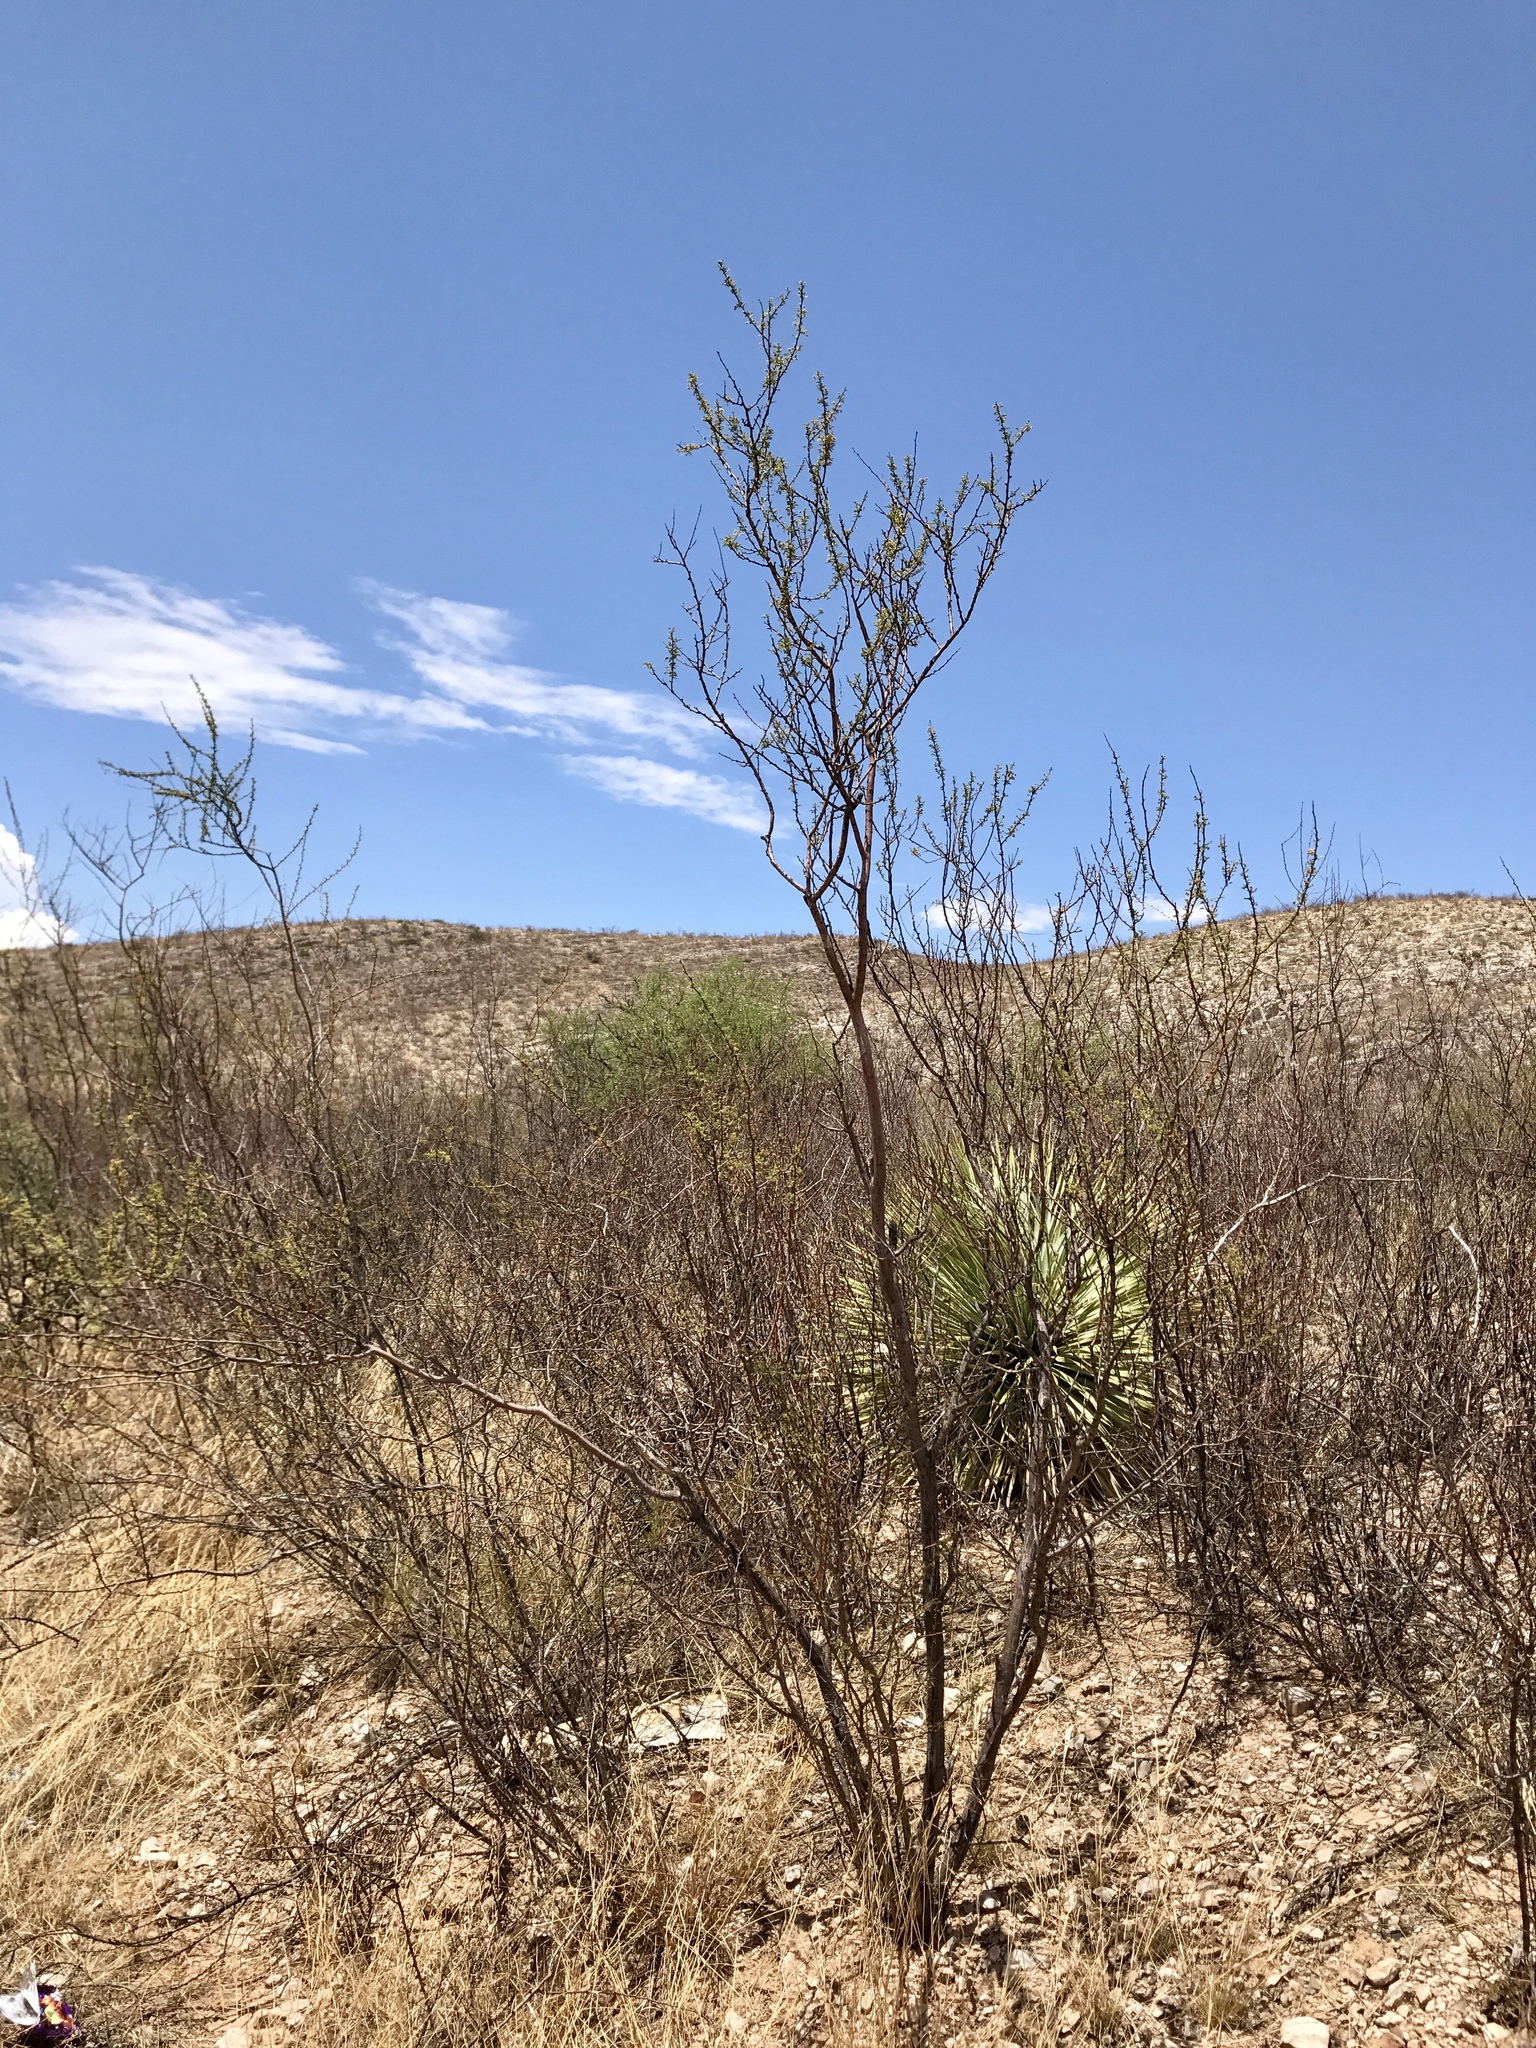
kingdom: Plantae
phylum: Tracheophyta
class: Magnoliopsida
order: Fabales
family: Fabaceae
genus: Vachellia
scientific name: Vachellia constricta
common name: Mescat acacia
